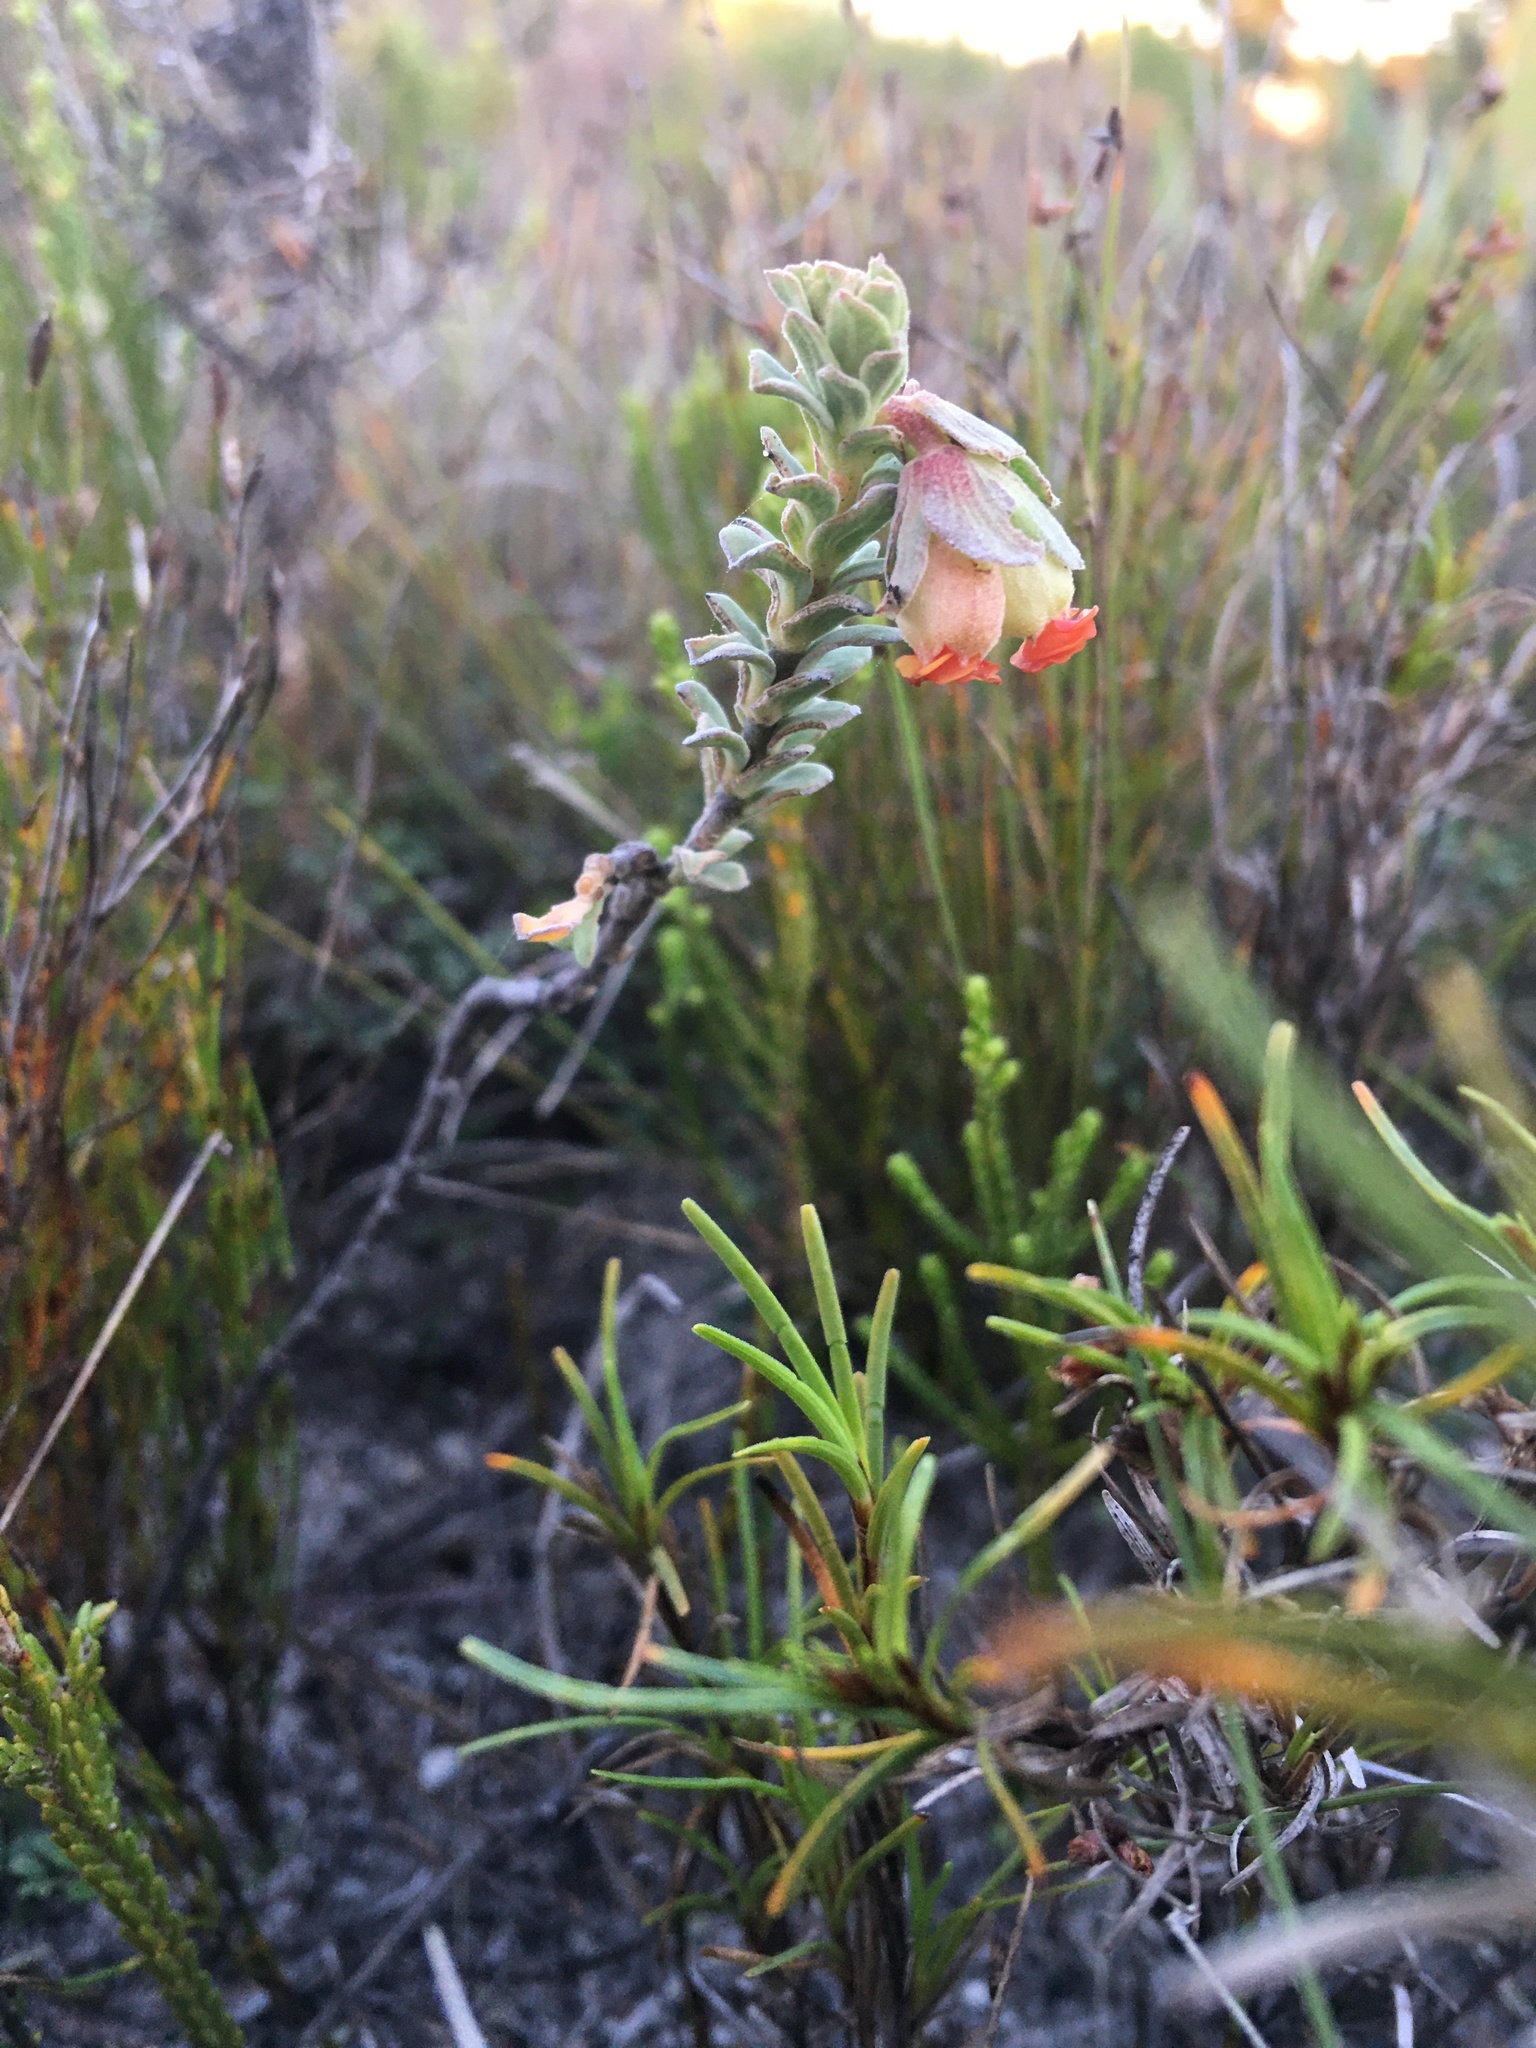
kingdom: Plantae
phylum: Tracheophyta
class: Magnoliopsida
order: Malvales
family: Malvaceae
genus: Hermannia
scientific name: Hermannia trifoliata
